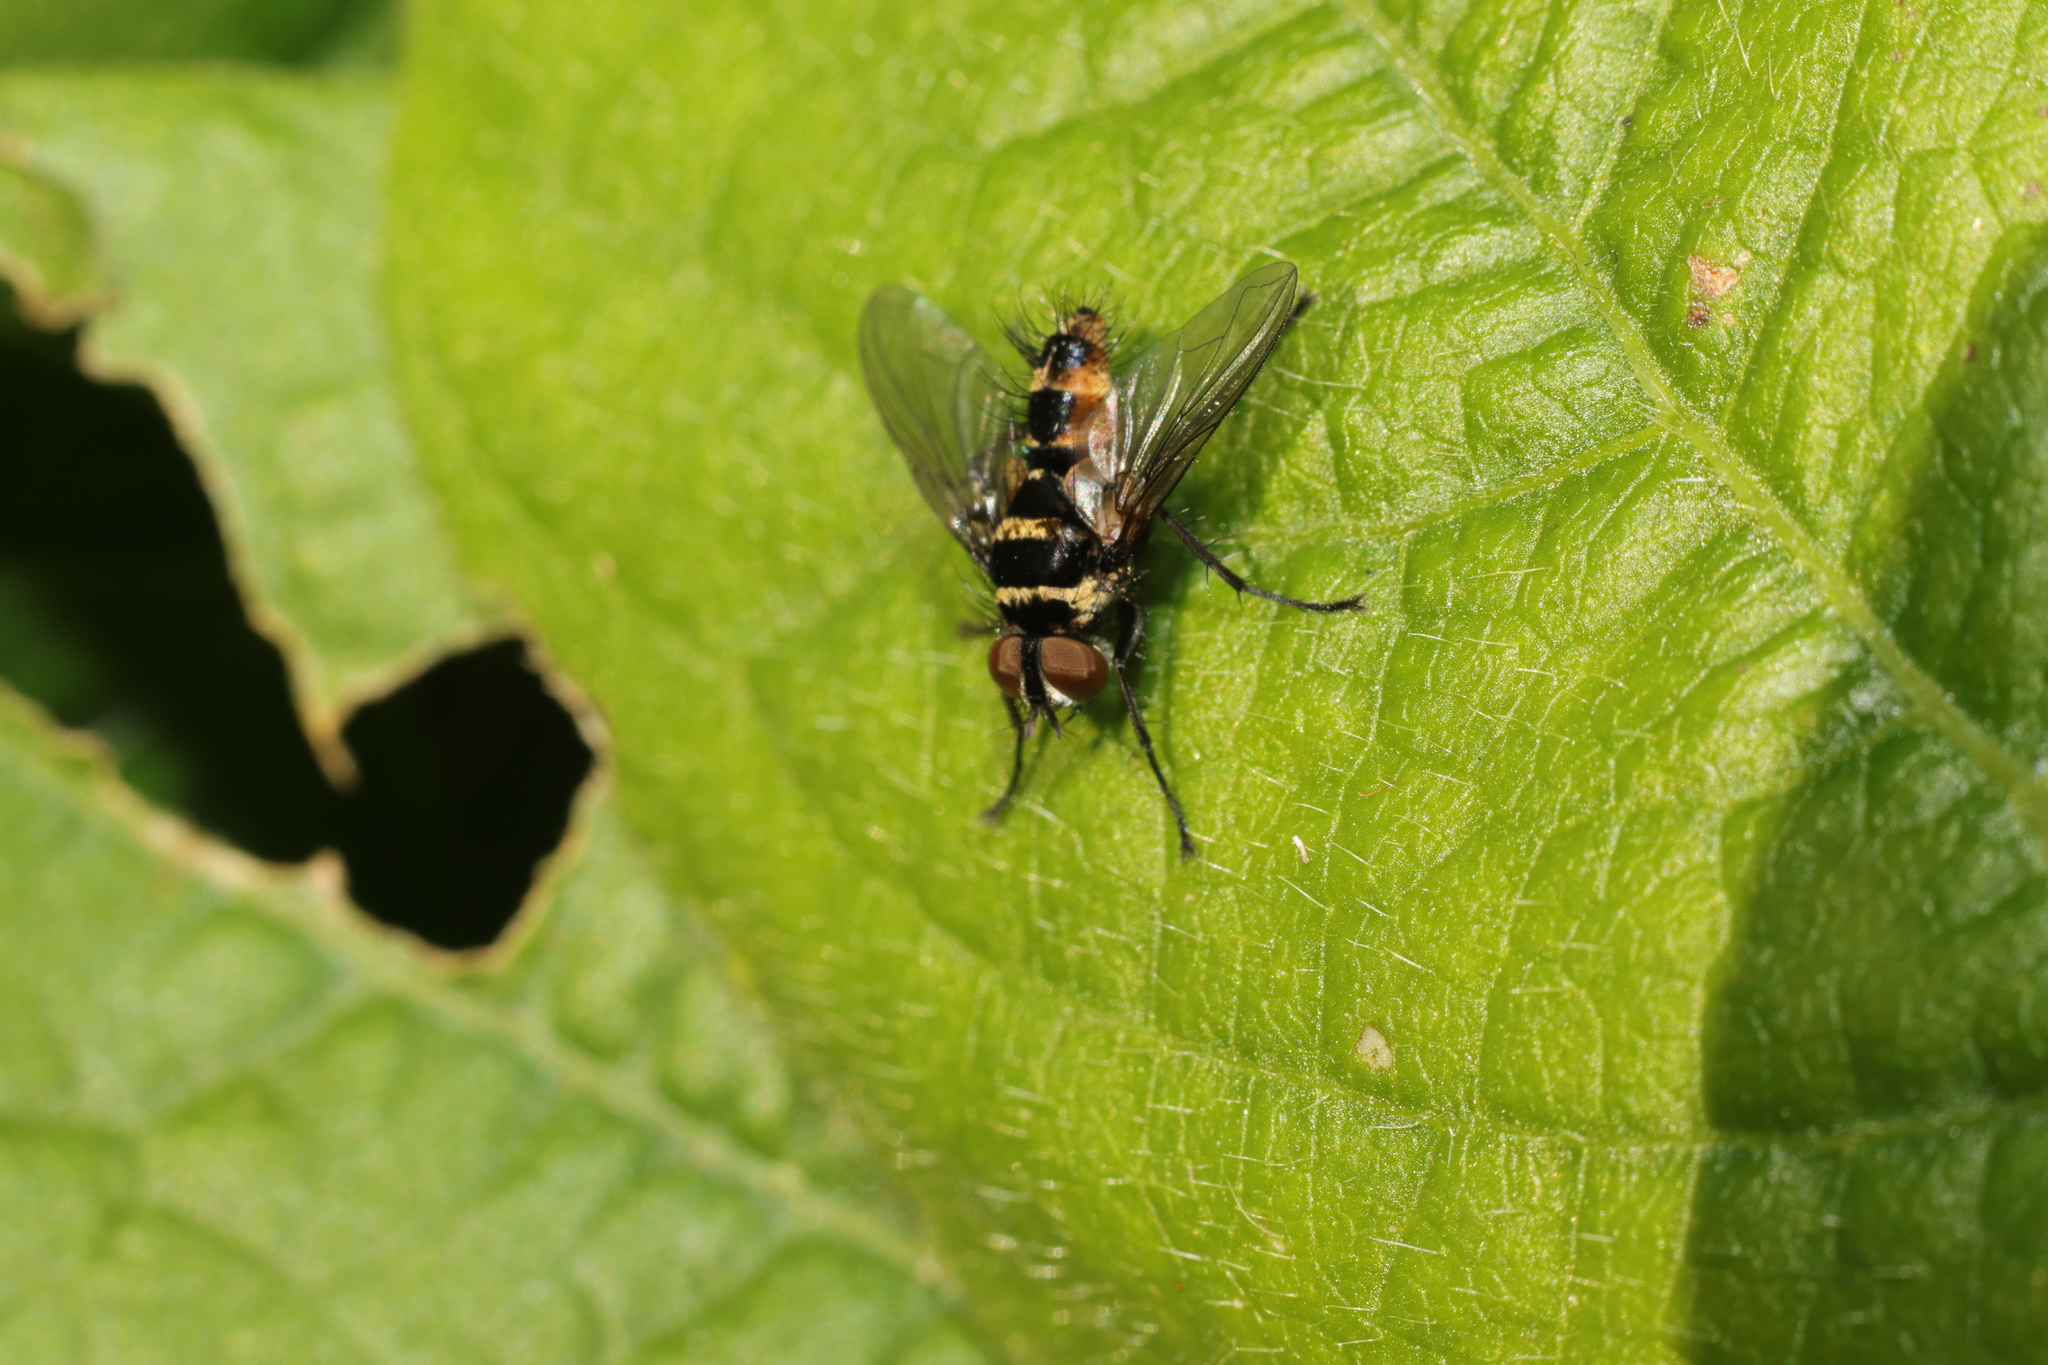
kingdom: Animalia
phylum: Arthropoda
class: Insecta
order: Diptera
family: Tachinidae
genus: Trigonospila
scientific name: Trigonospila brevifacies
